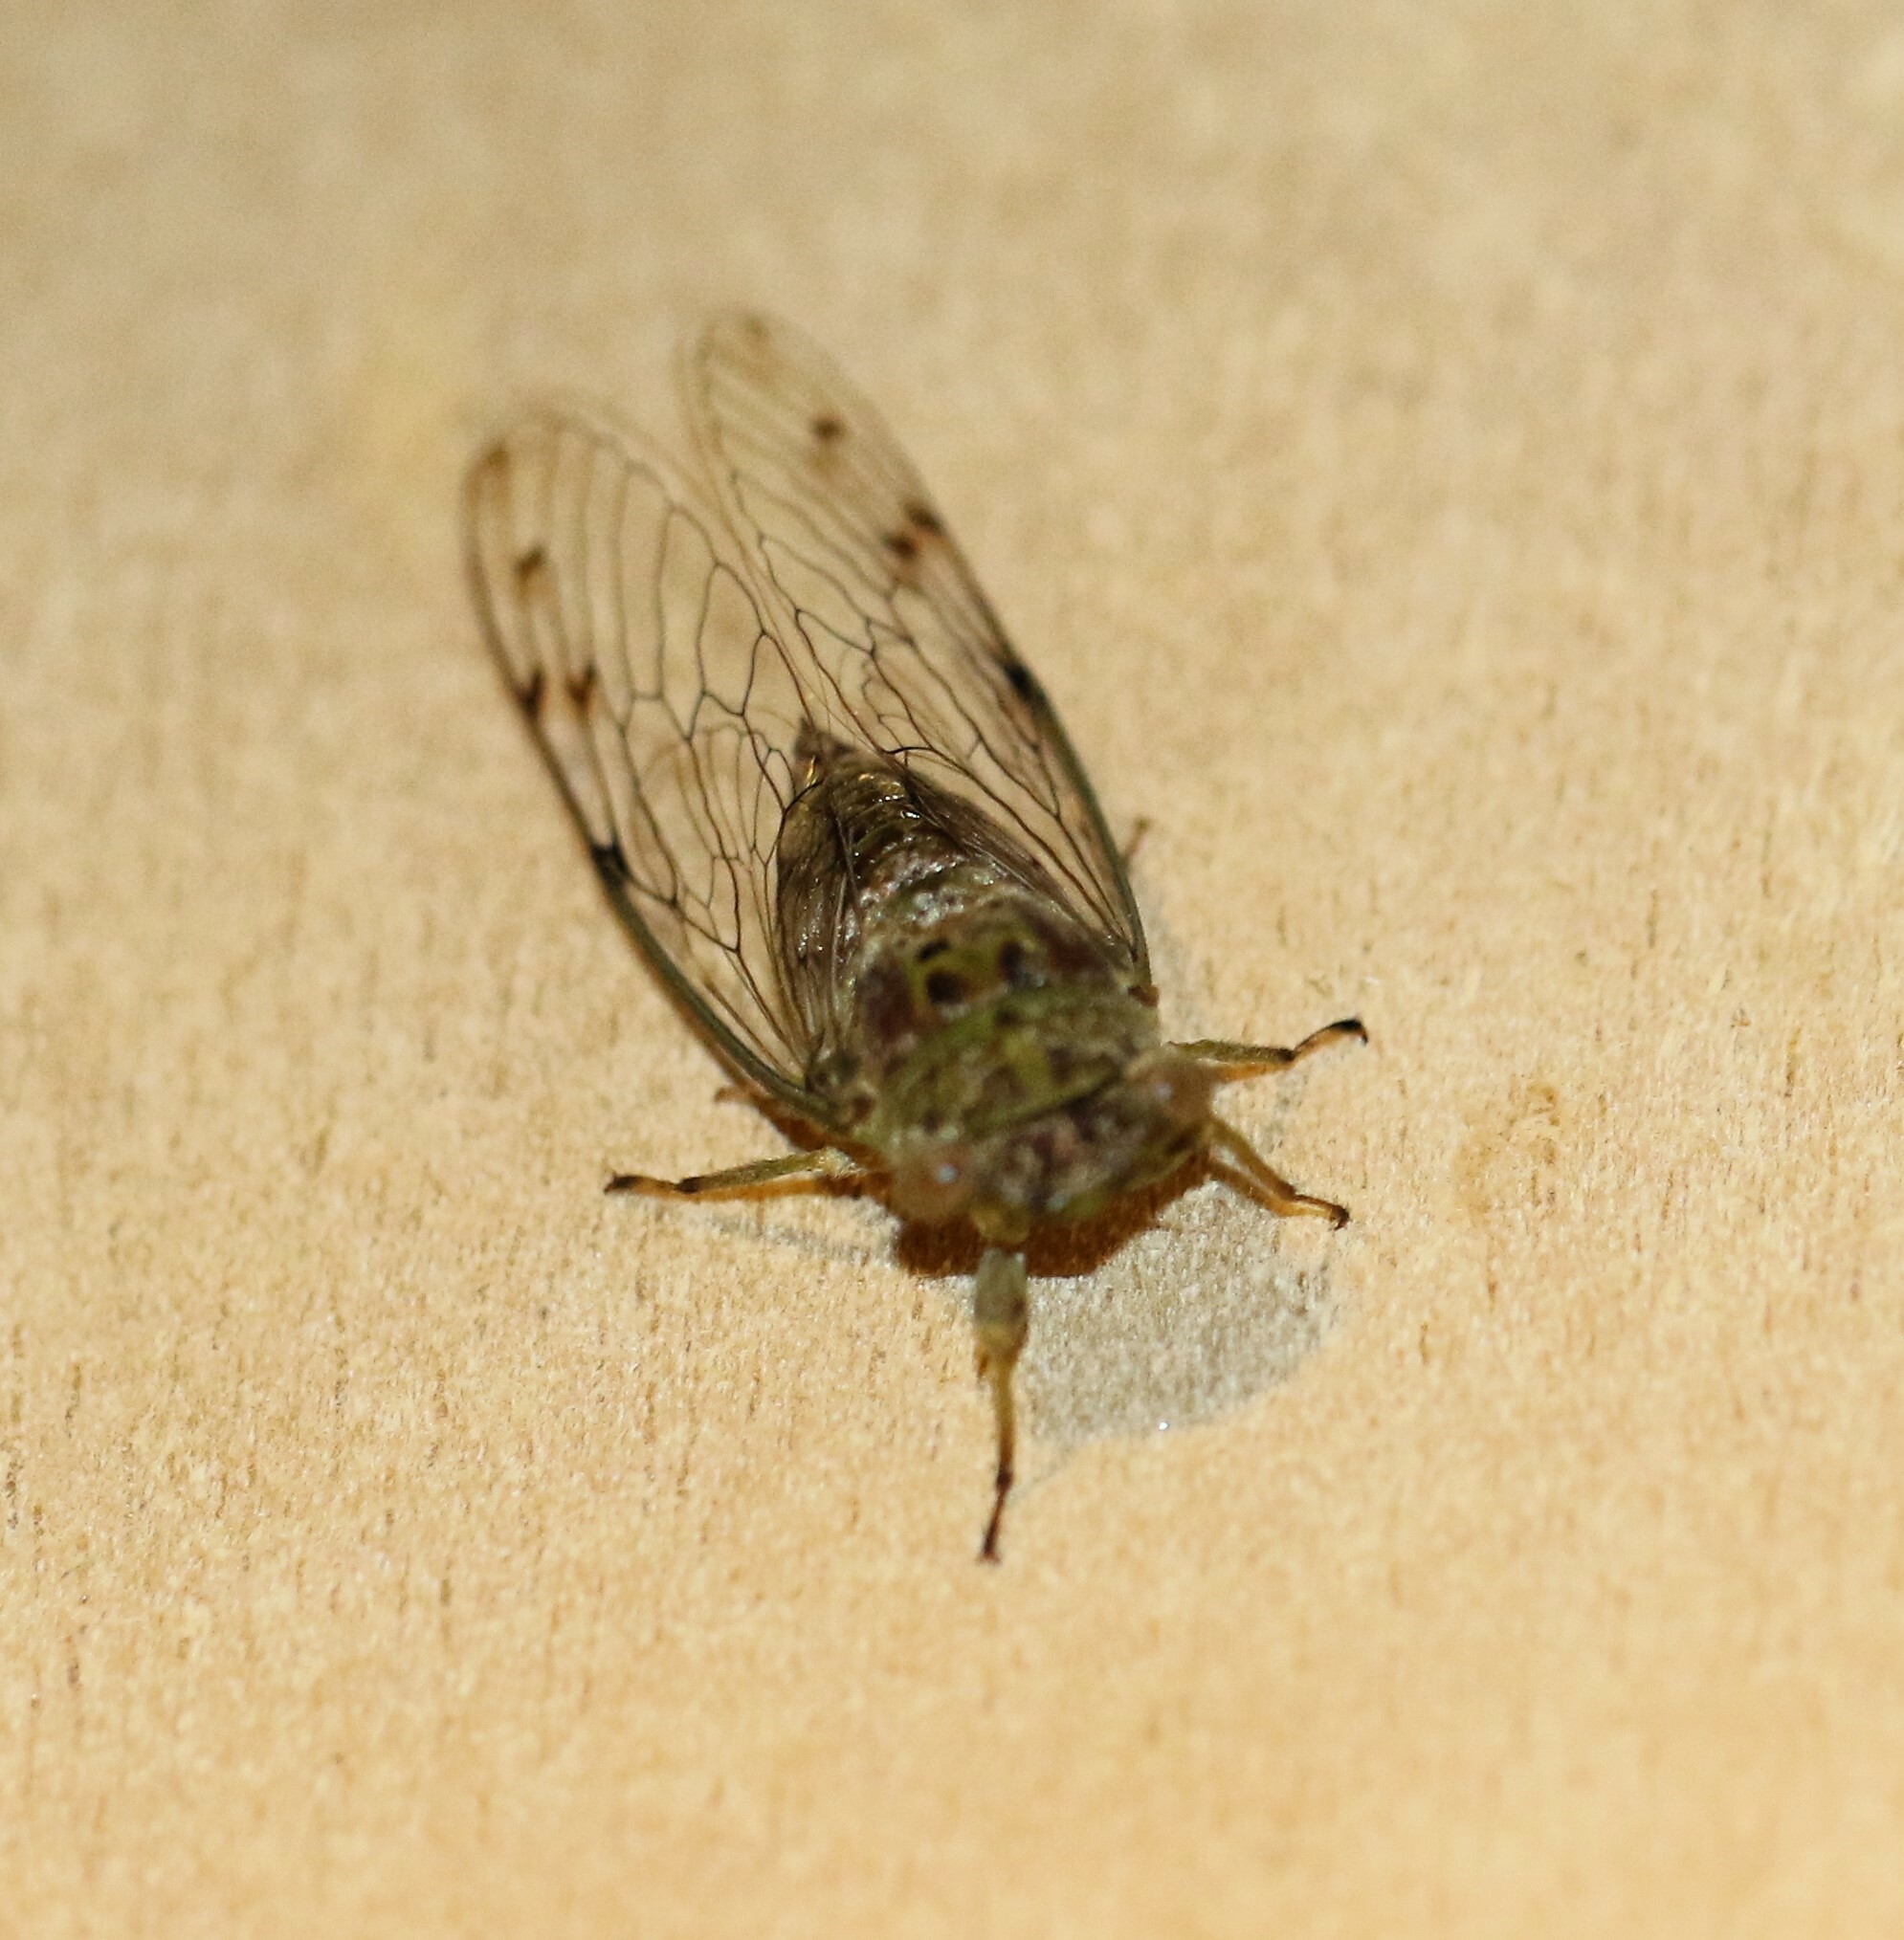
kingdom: Animalia
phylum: Arthropoda
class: Insecta
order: Hemiptera
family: Cicadidae
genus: Pacarina
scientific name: Pacarina schumanni
